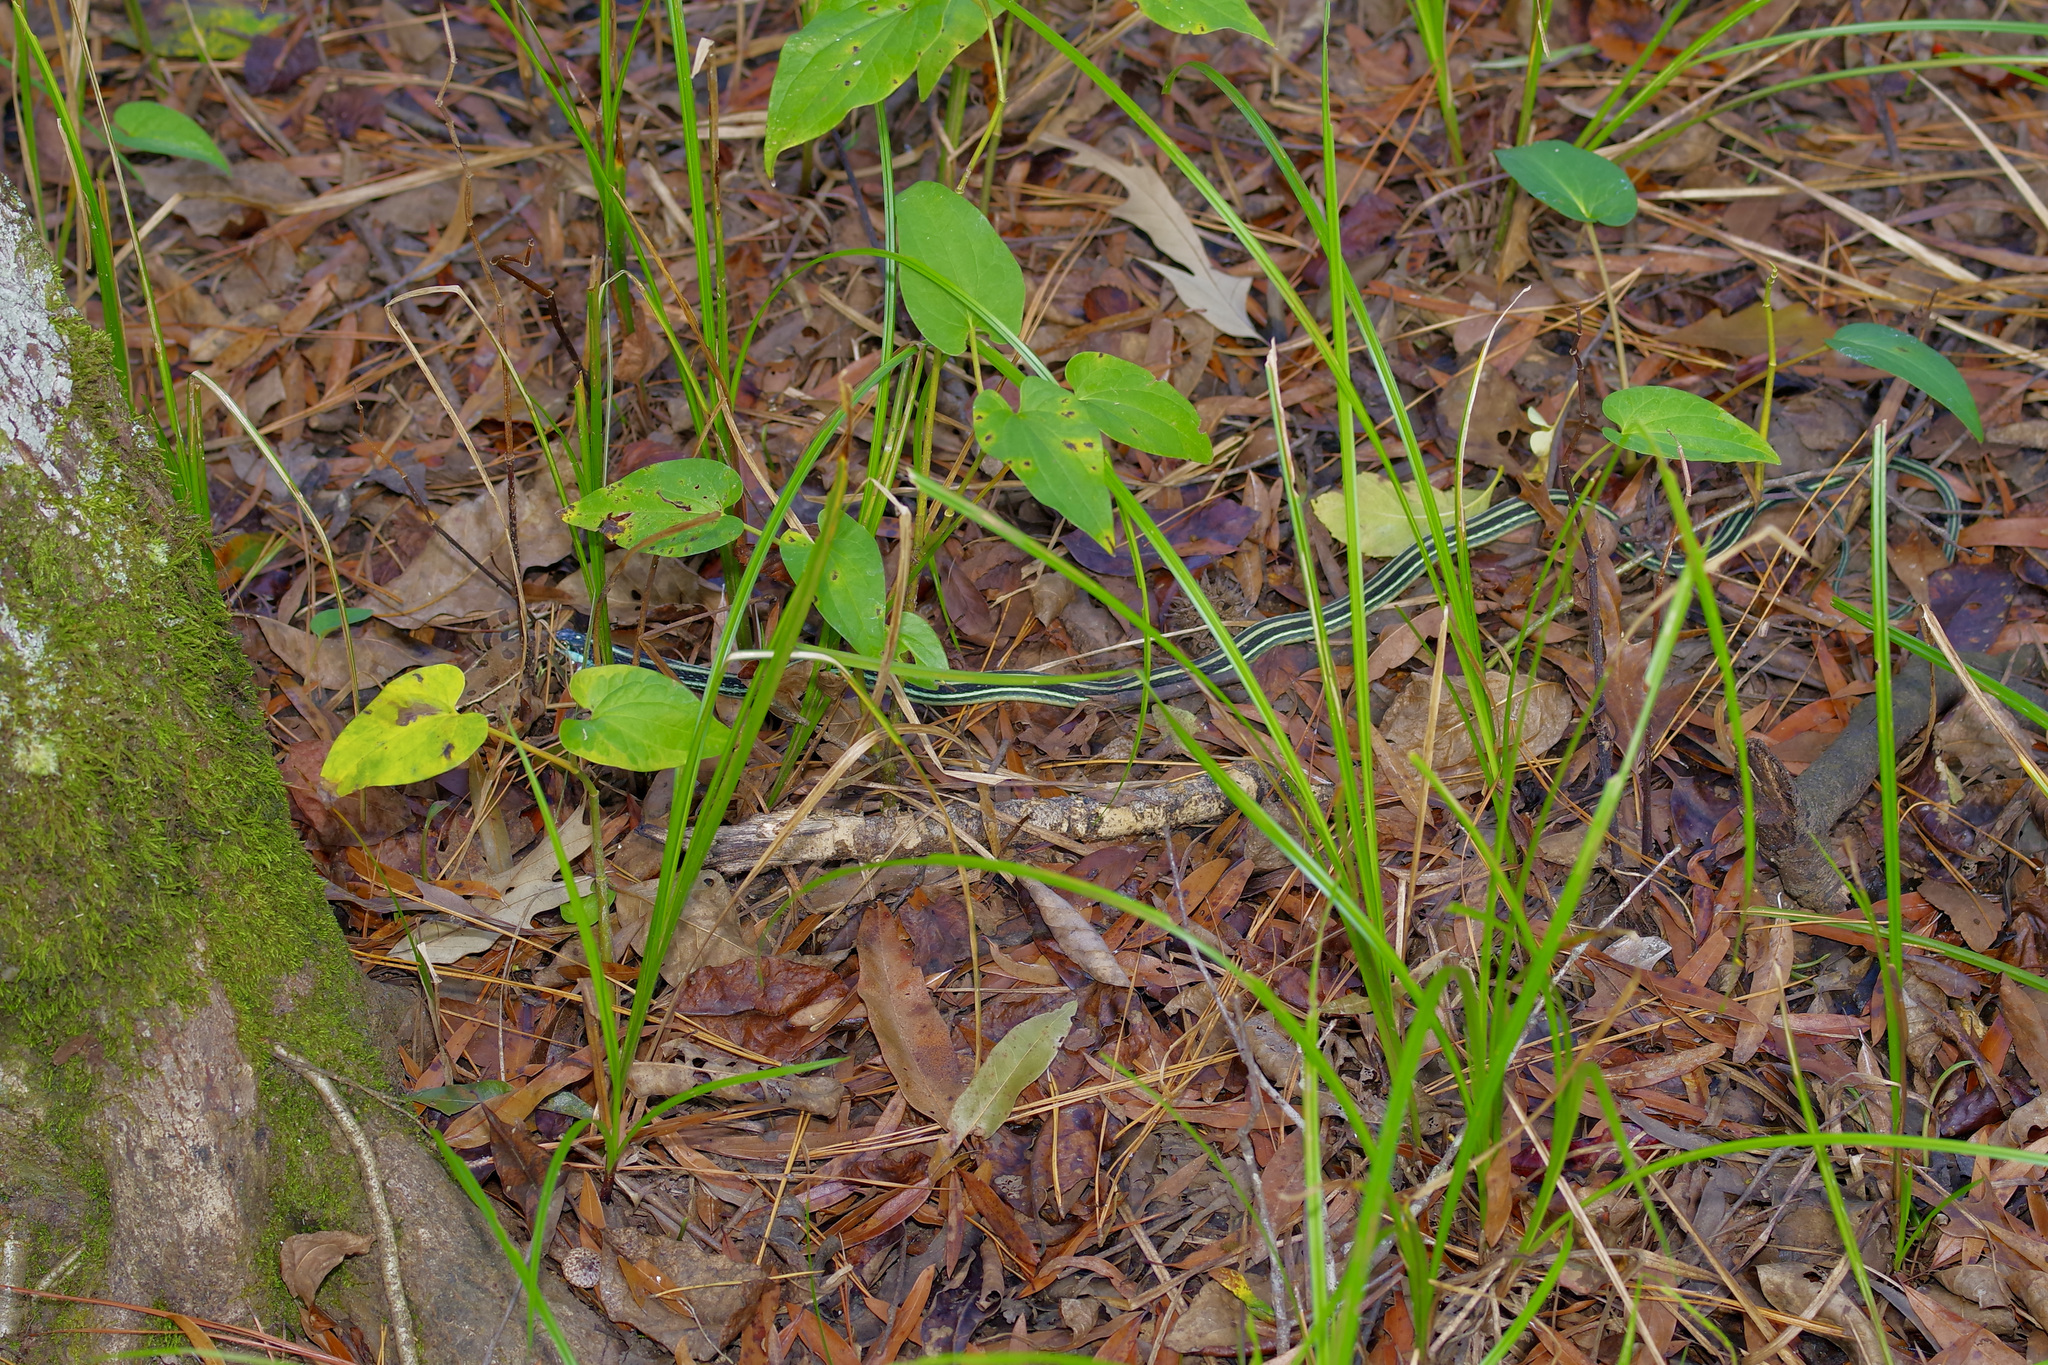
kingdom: Animalia
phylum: Chordata
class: Squamata
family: Colubridae
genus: Thamnophis
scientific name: Thamnophis proximus
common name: Western ribbon snake
